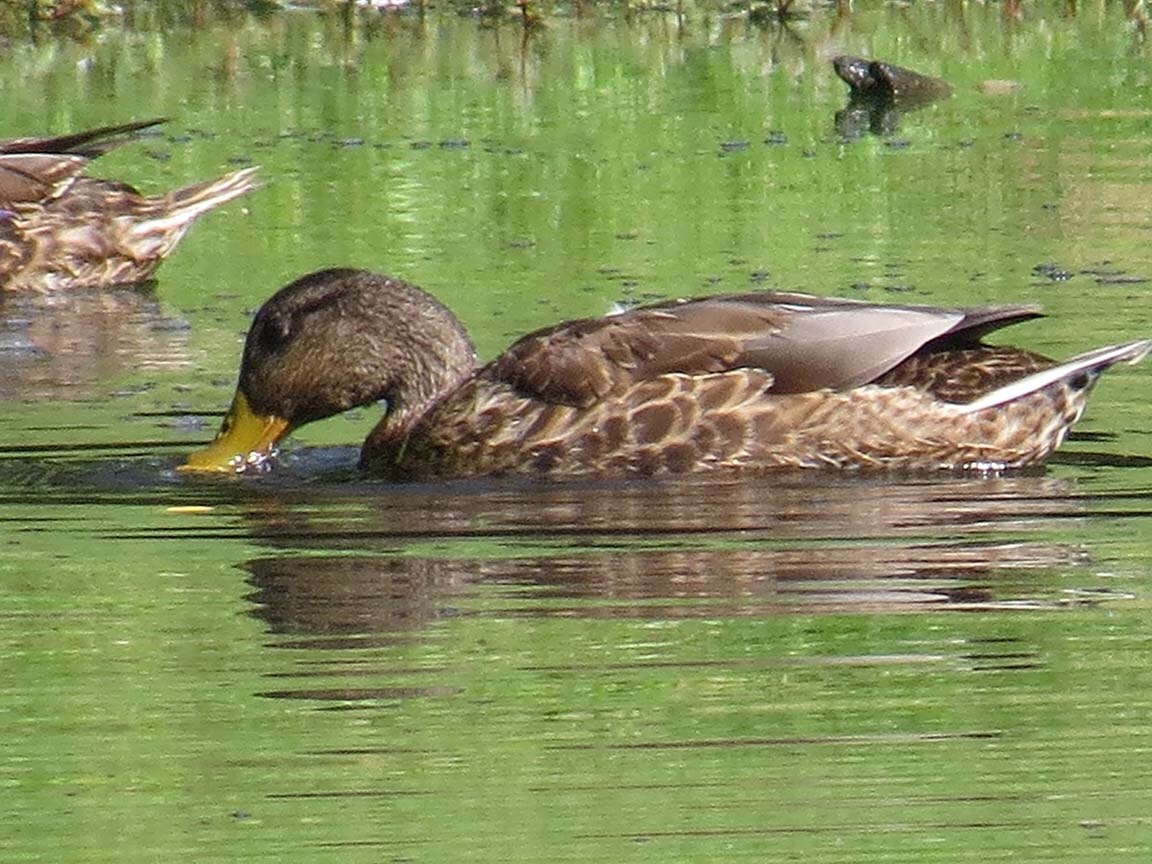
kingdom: Animalia
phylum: Chordata
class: Aves
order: Anseriformes
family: Anatidae
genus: Anas
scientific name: Anas platyrhynchos
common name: Mallard
